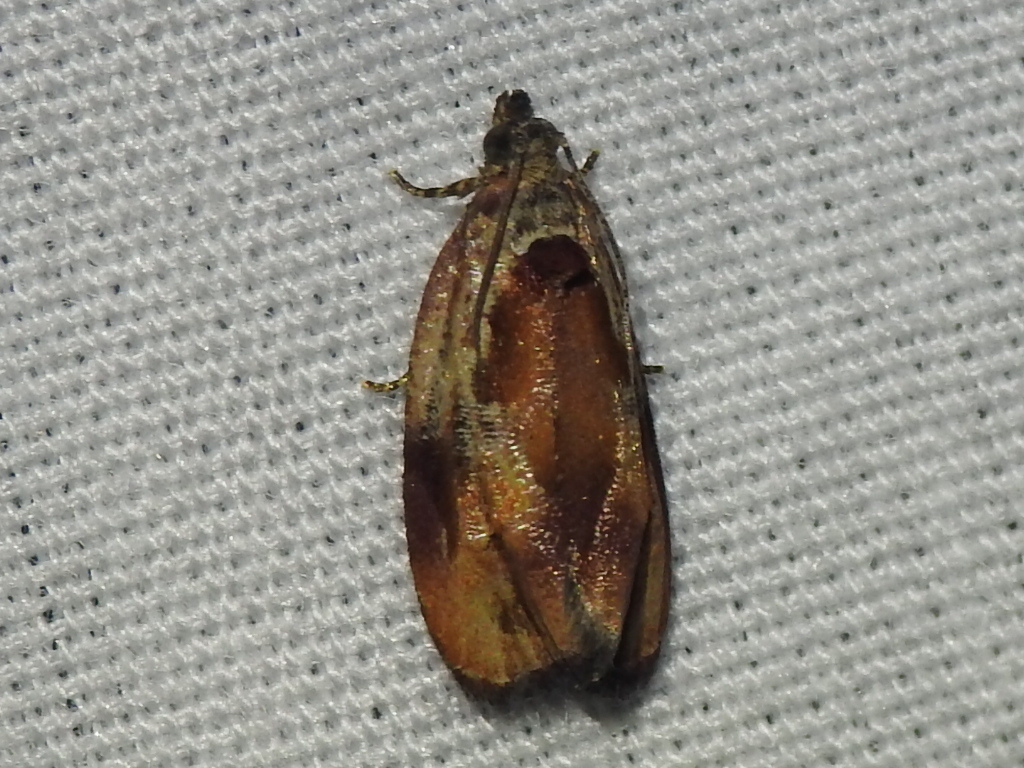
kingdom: Animalia
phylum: Arthropoda
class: Insecta
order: Lepidoptera
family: Tortricidae
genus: Zomaria
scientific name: Zomaria interruptolineana
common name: Broken-lined zomaria moth
